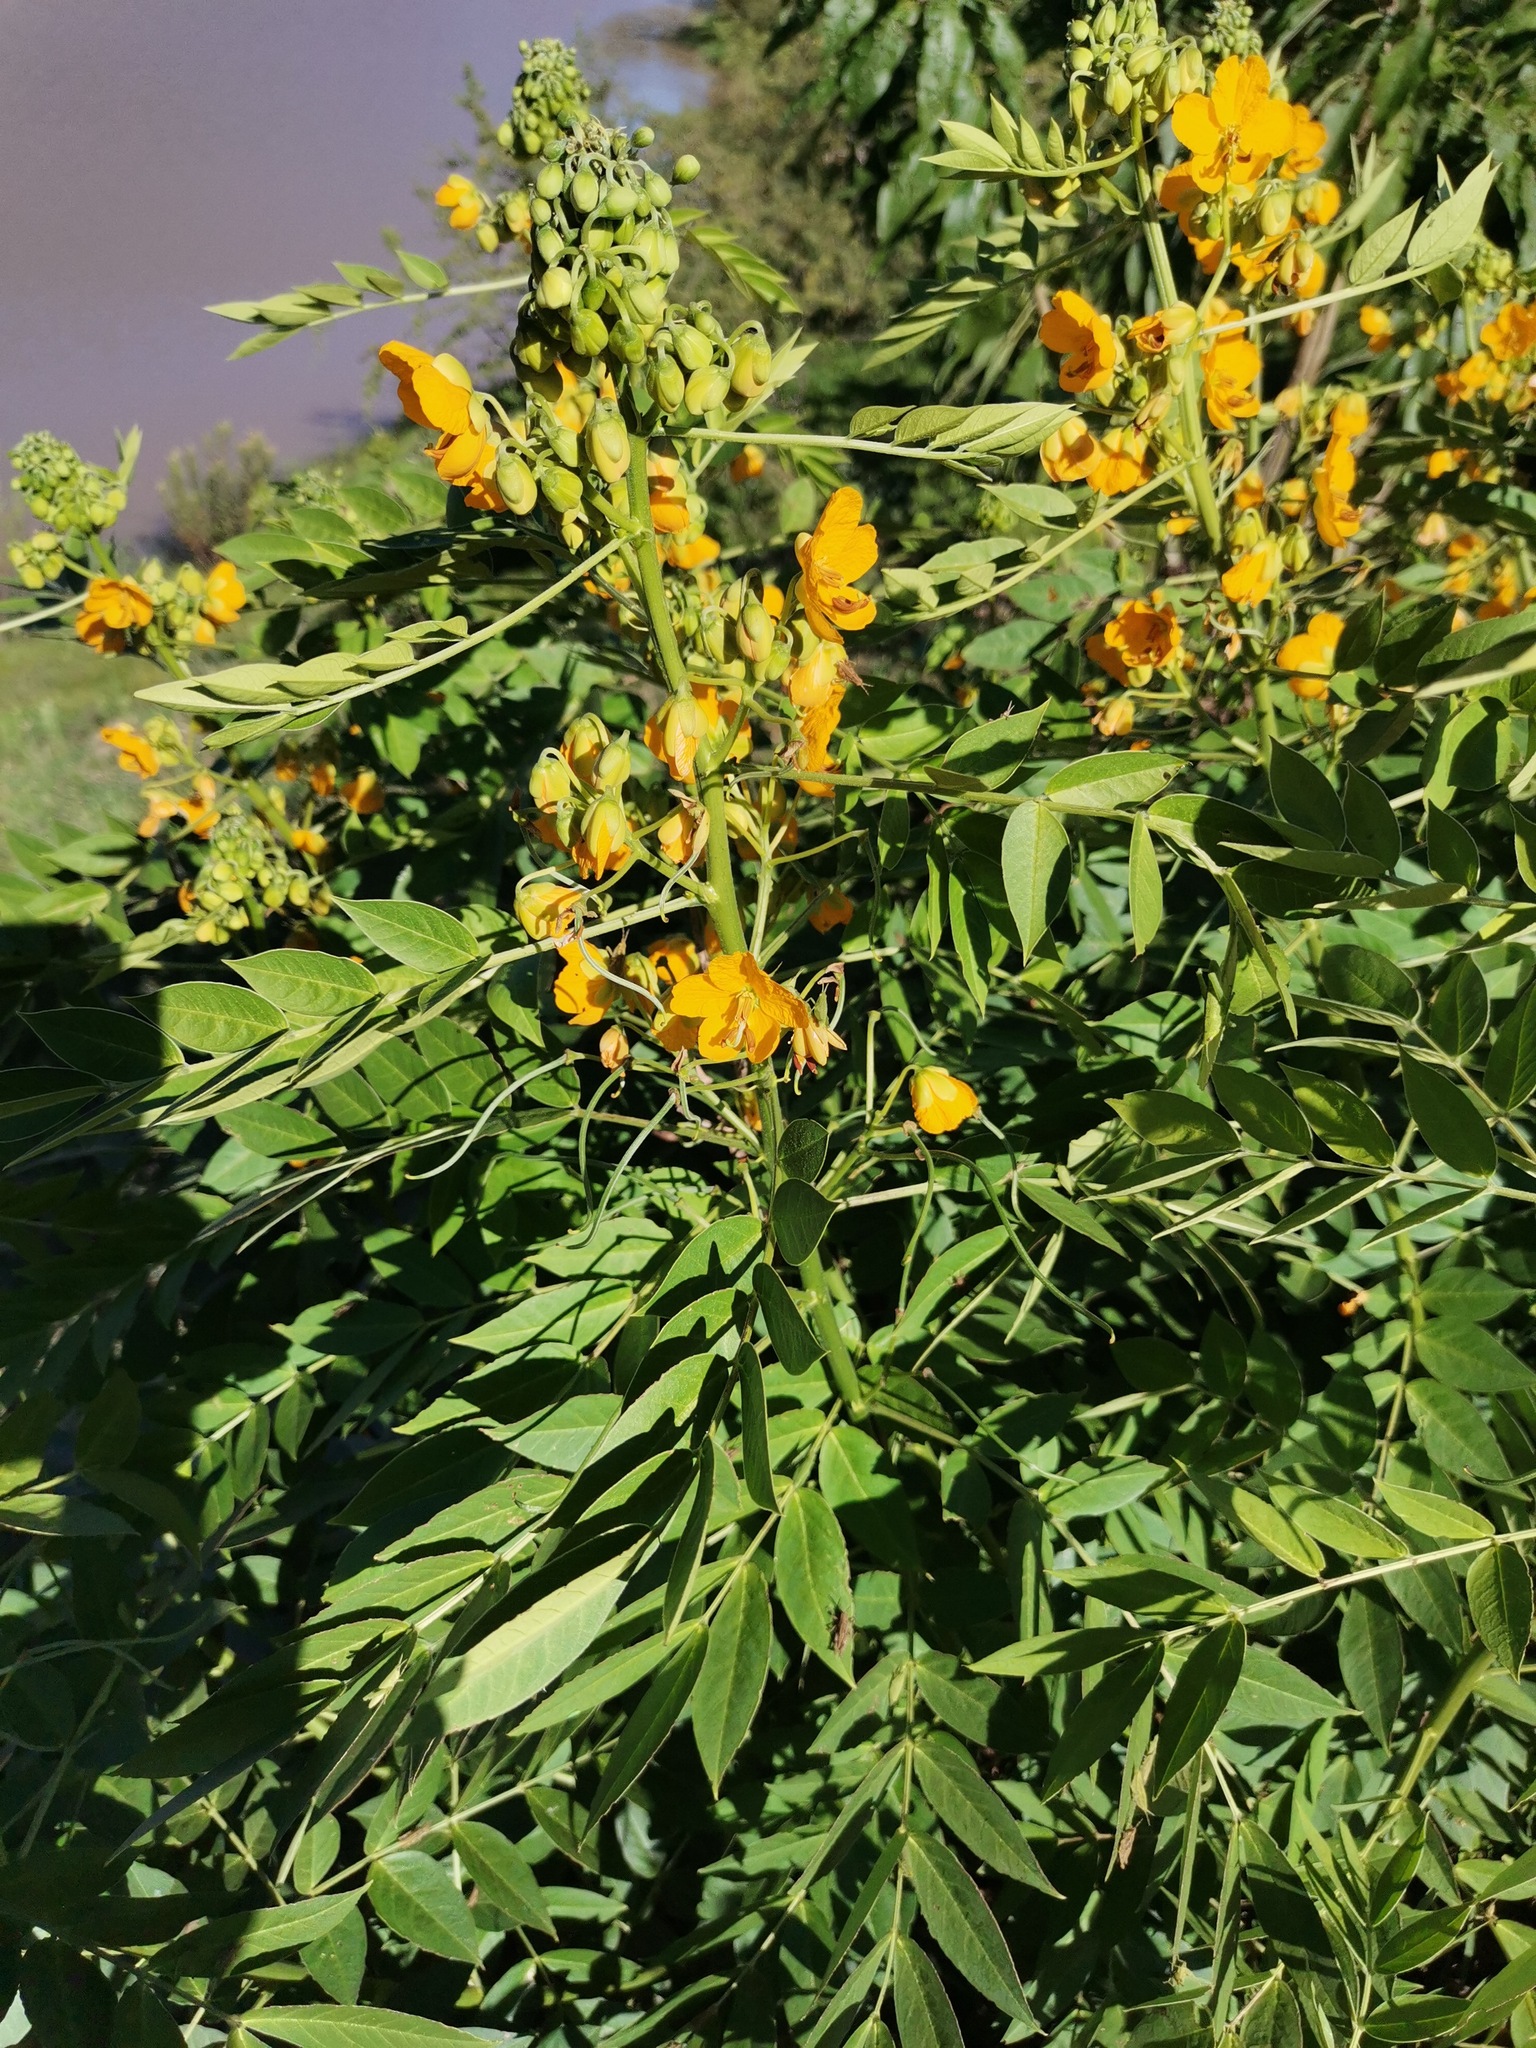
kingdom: Plantae
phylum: Tracheophyta
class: Magnoliopsida
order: Fabales
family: Fabaceae
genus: Senna
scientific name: Senna hirsuta
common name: Woolly senna
